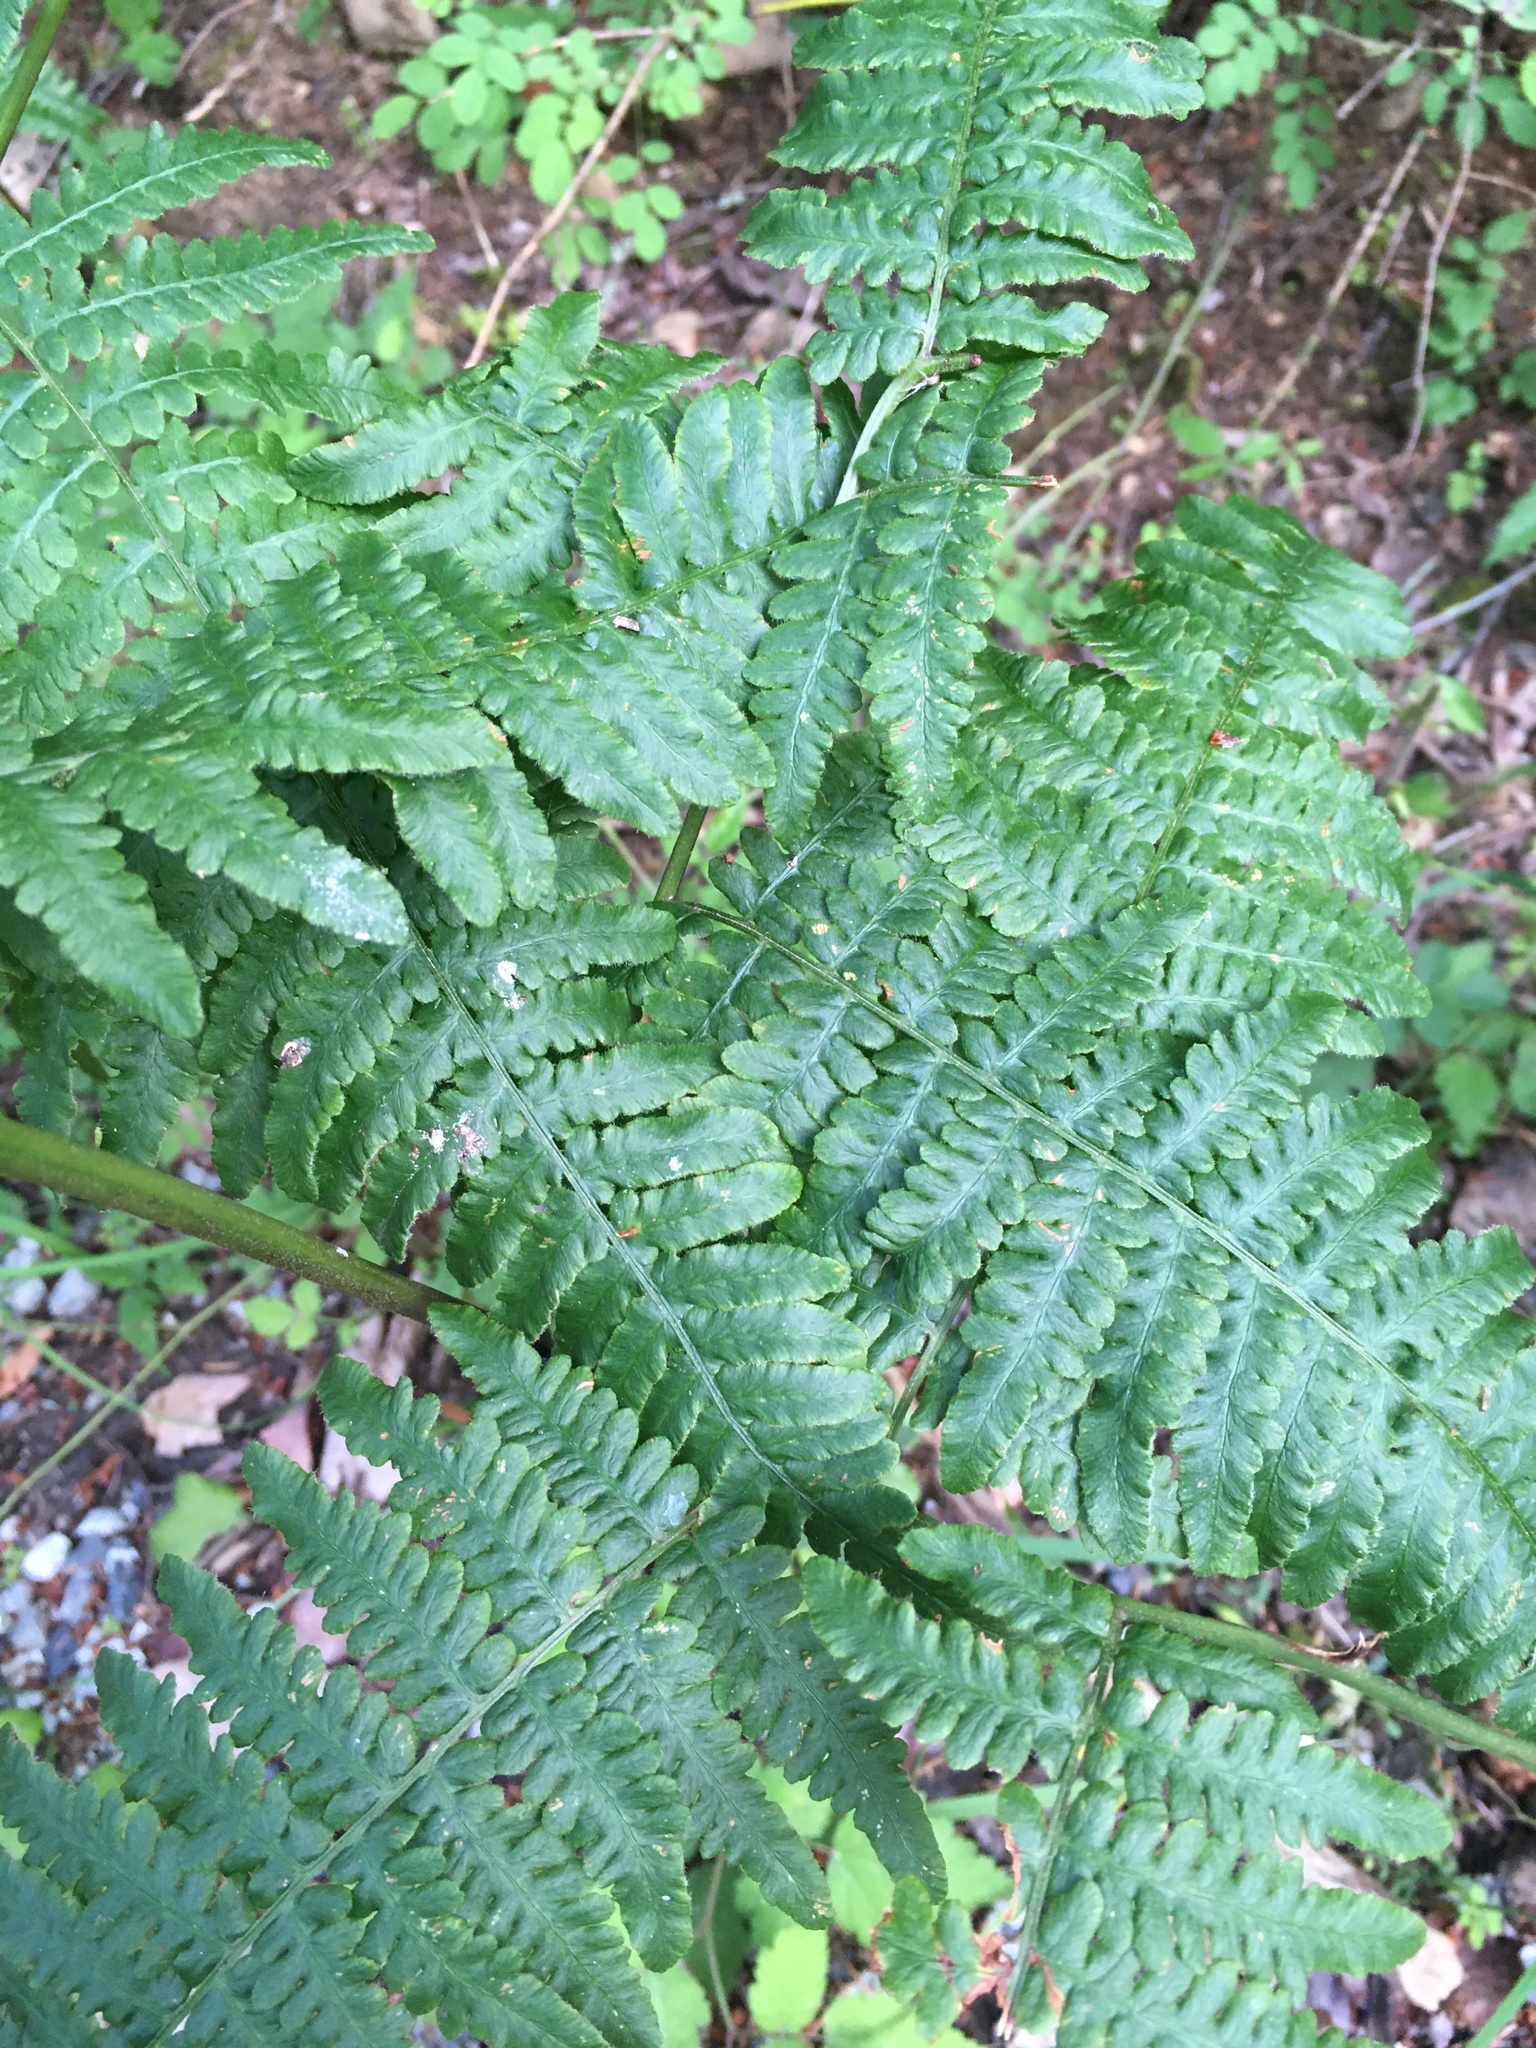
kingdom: Plantae
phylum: Tracheophyta
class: Polypodiopsida
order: Polypodiales
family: Dennstaedtiaceae
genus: Pteridium
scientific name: Pteridium aquilinum
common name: Bracken
